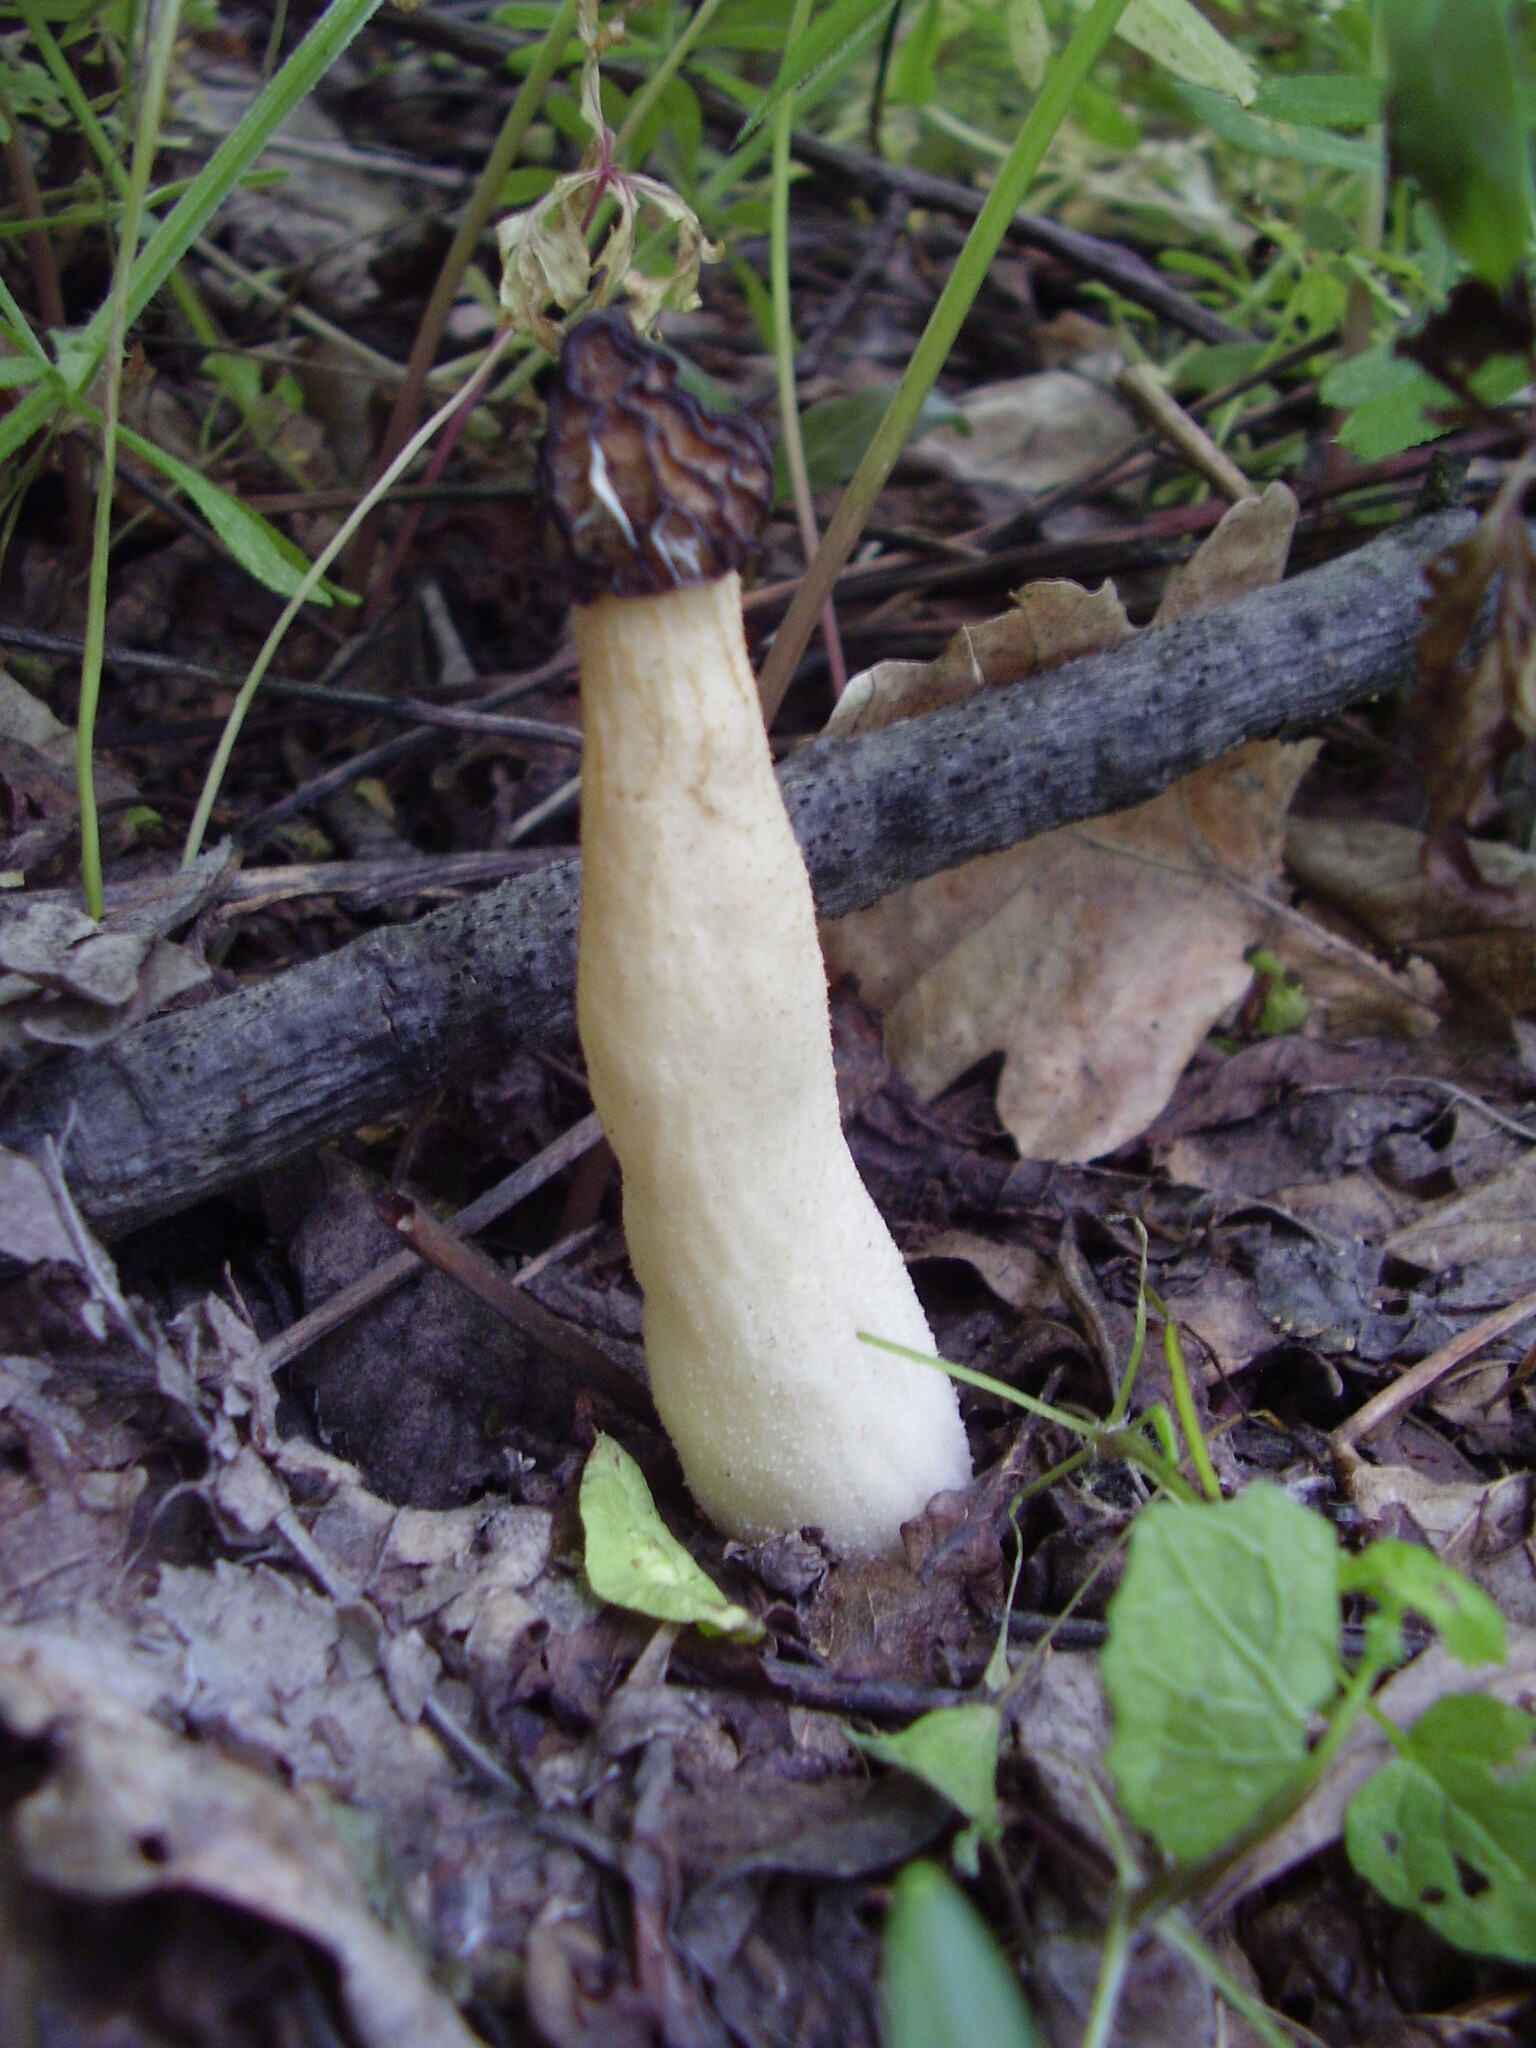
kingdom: Fungi
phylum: Ascomycota
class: Pezizomycetes
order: Pezizales
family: Morchellaceae
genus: Morchella
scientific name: Morchella semilibera
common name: Semifree morel
